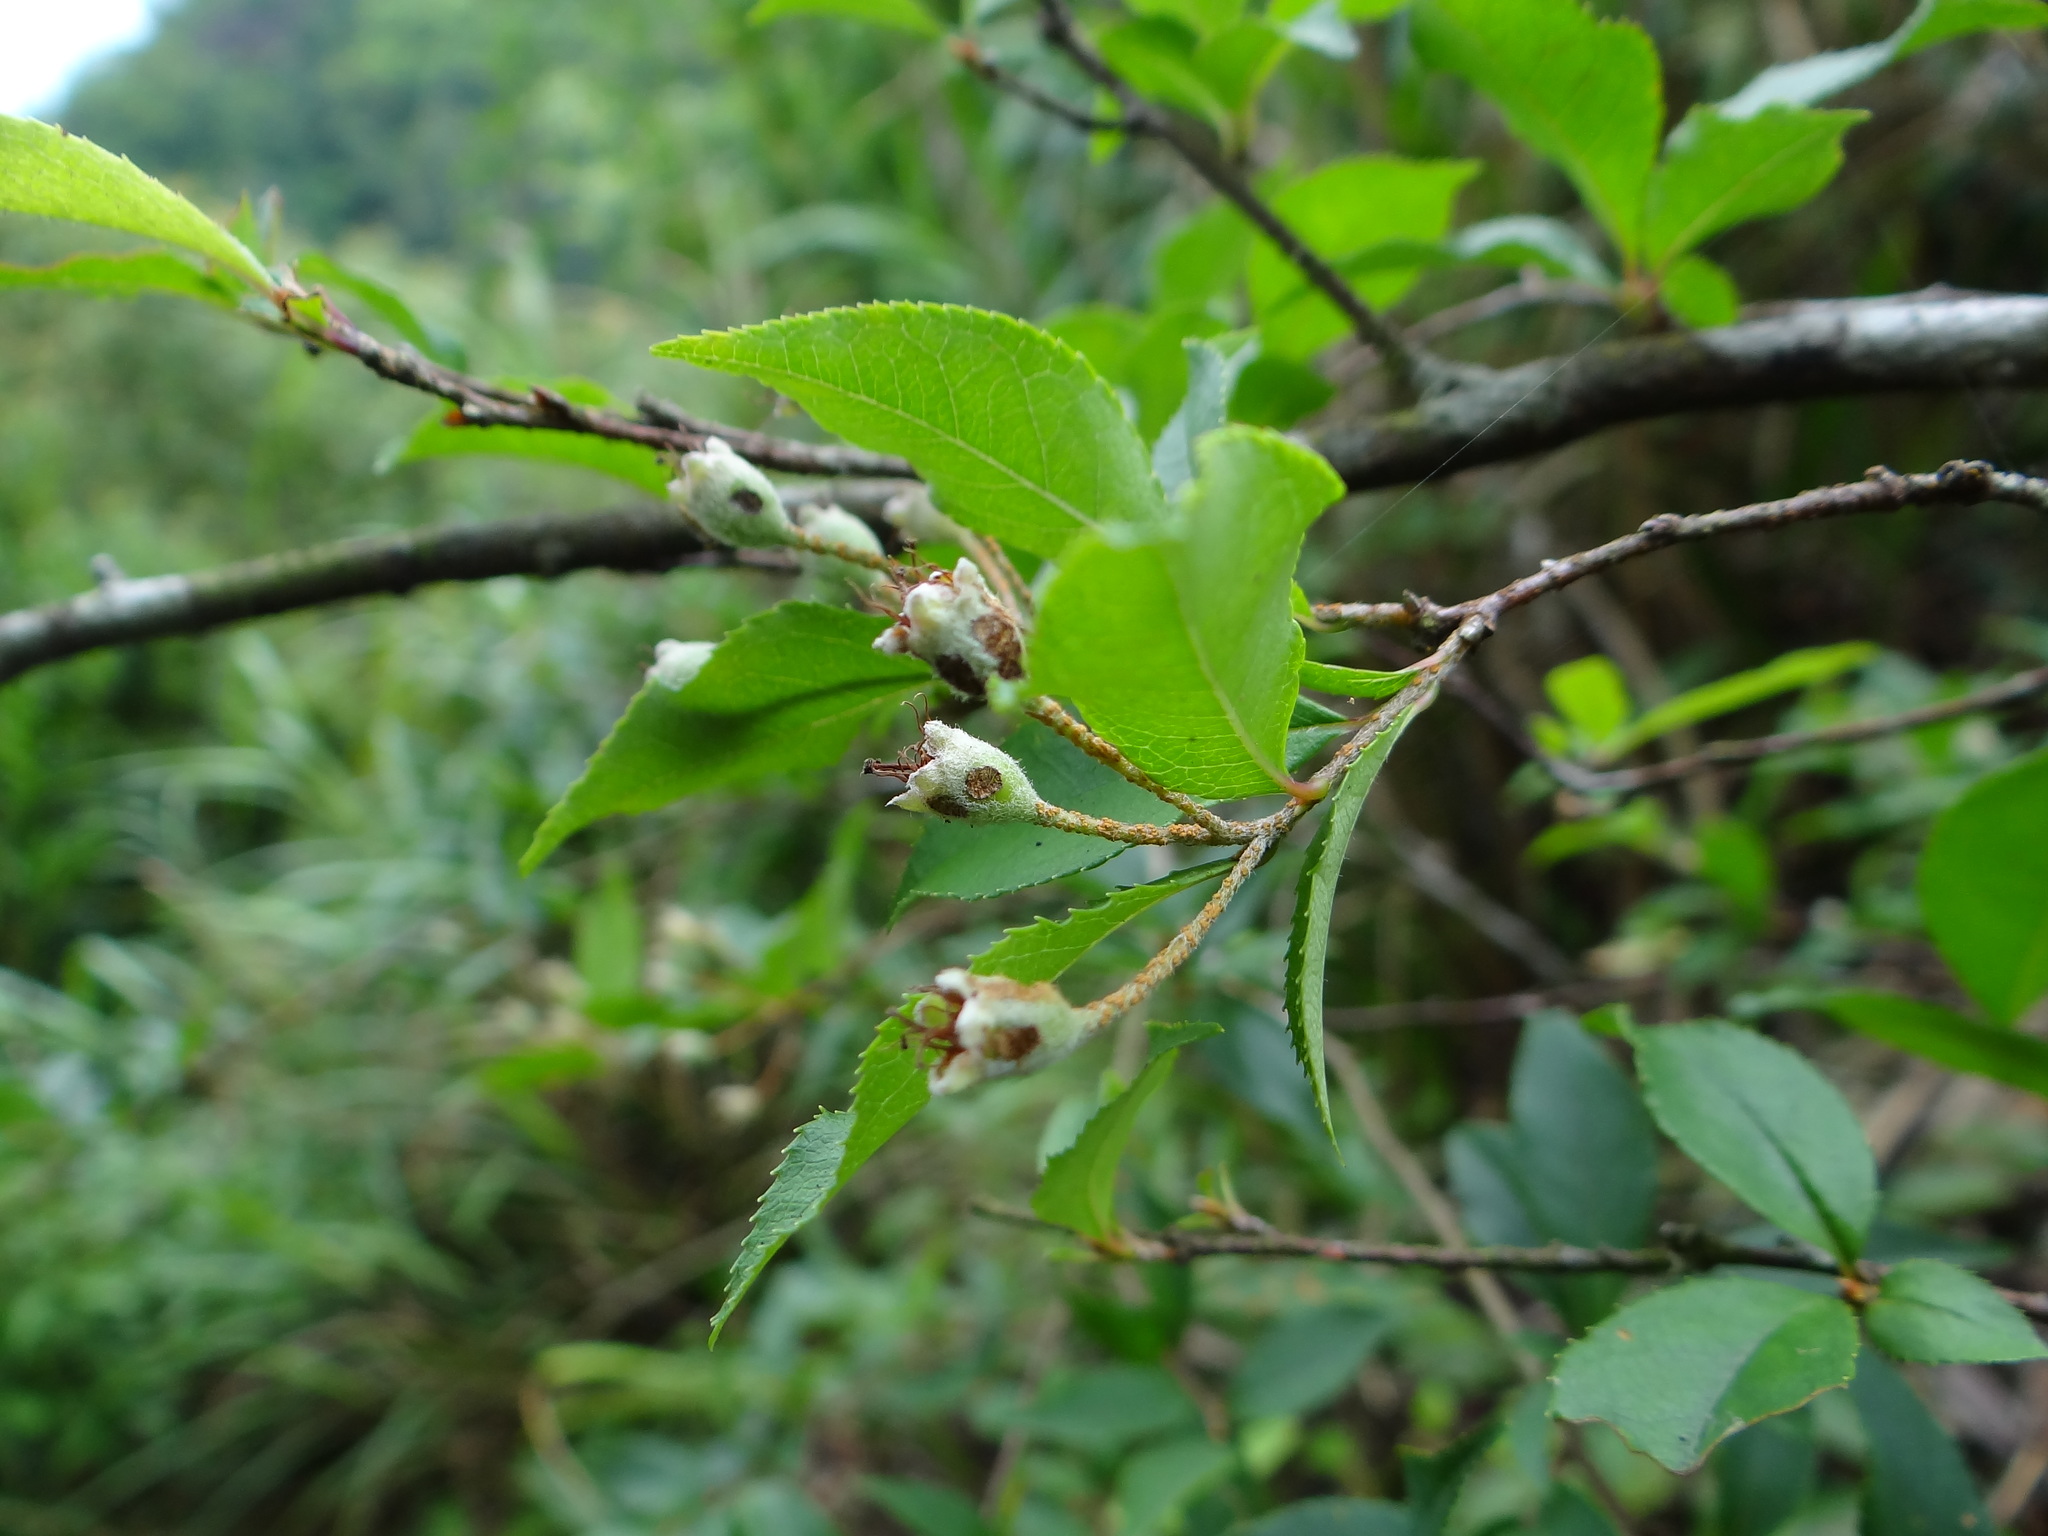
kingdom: Plantae
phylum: Tracheophyta
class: Magnoliopsida
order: Rosales
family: Rosaceae
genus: Pourthiaea
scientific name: Pourthiaea villosa
